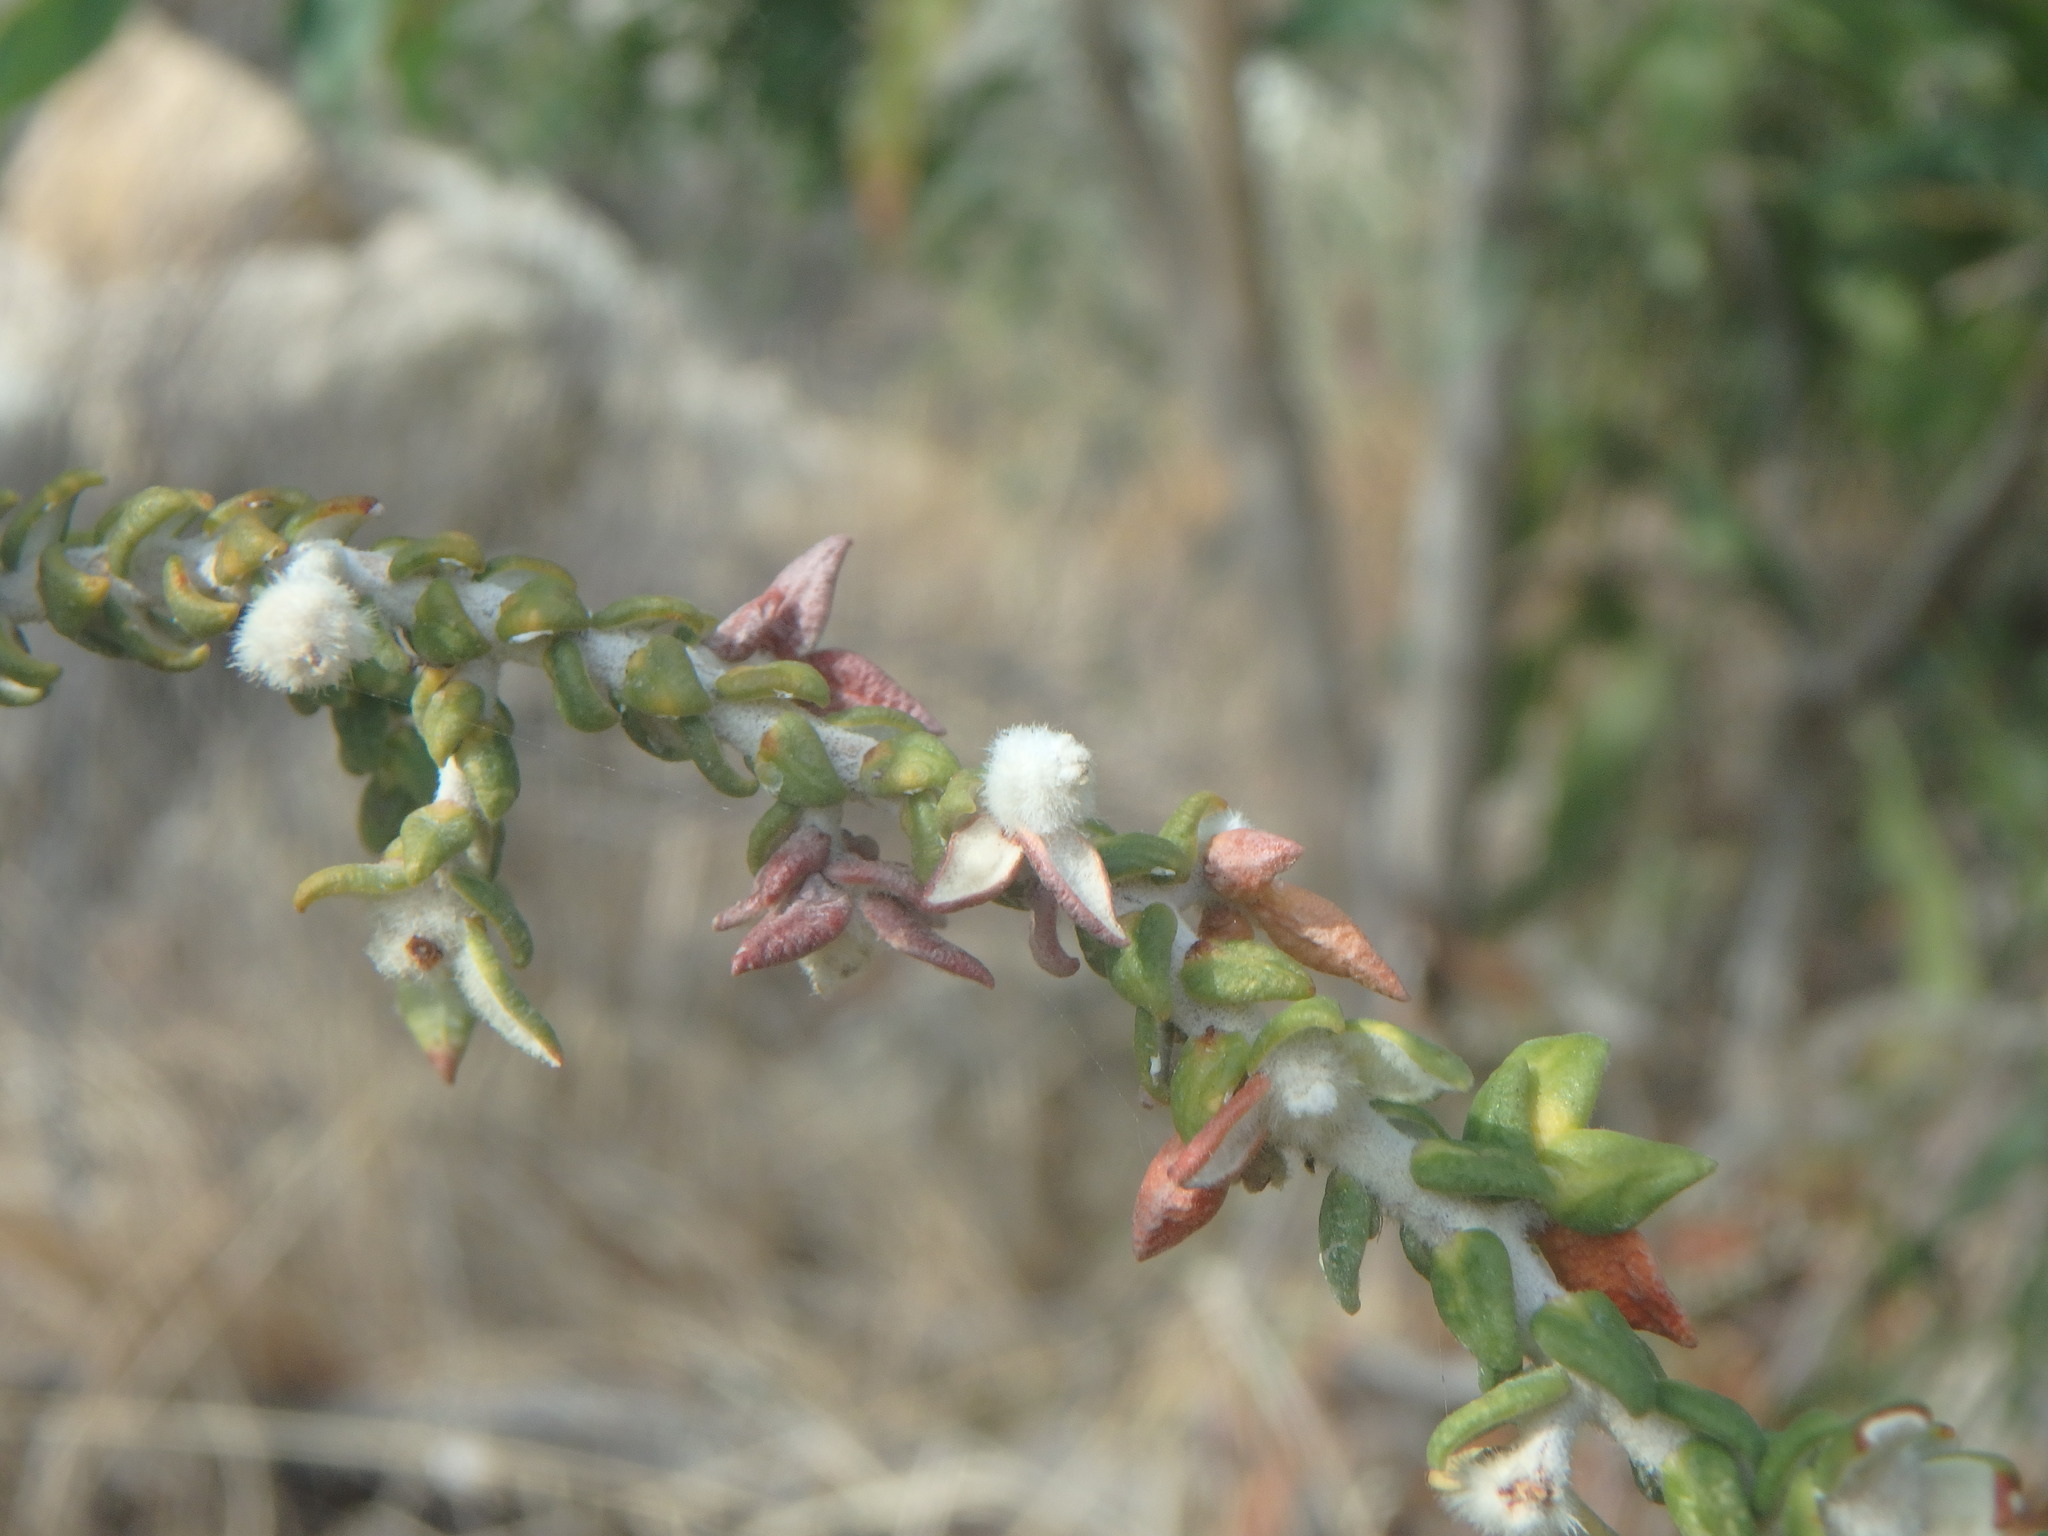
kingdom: Plantae
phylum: Tracheophyta
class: Magnoliopsida
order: Malvales
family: Thymelaeaceae
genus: Thymelaea
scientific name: Thymelaea hirsuta
